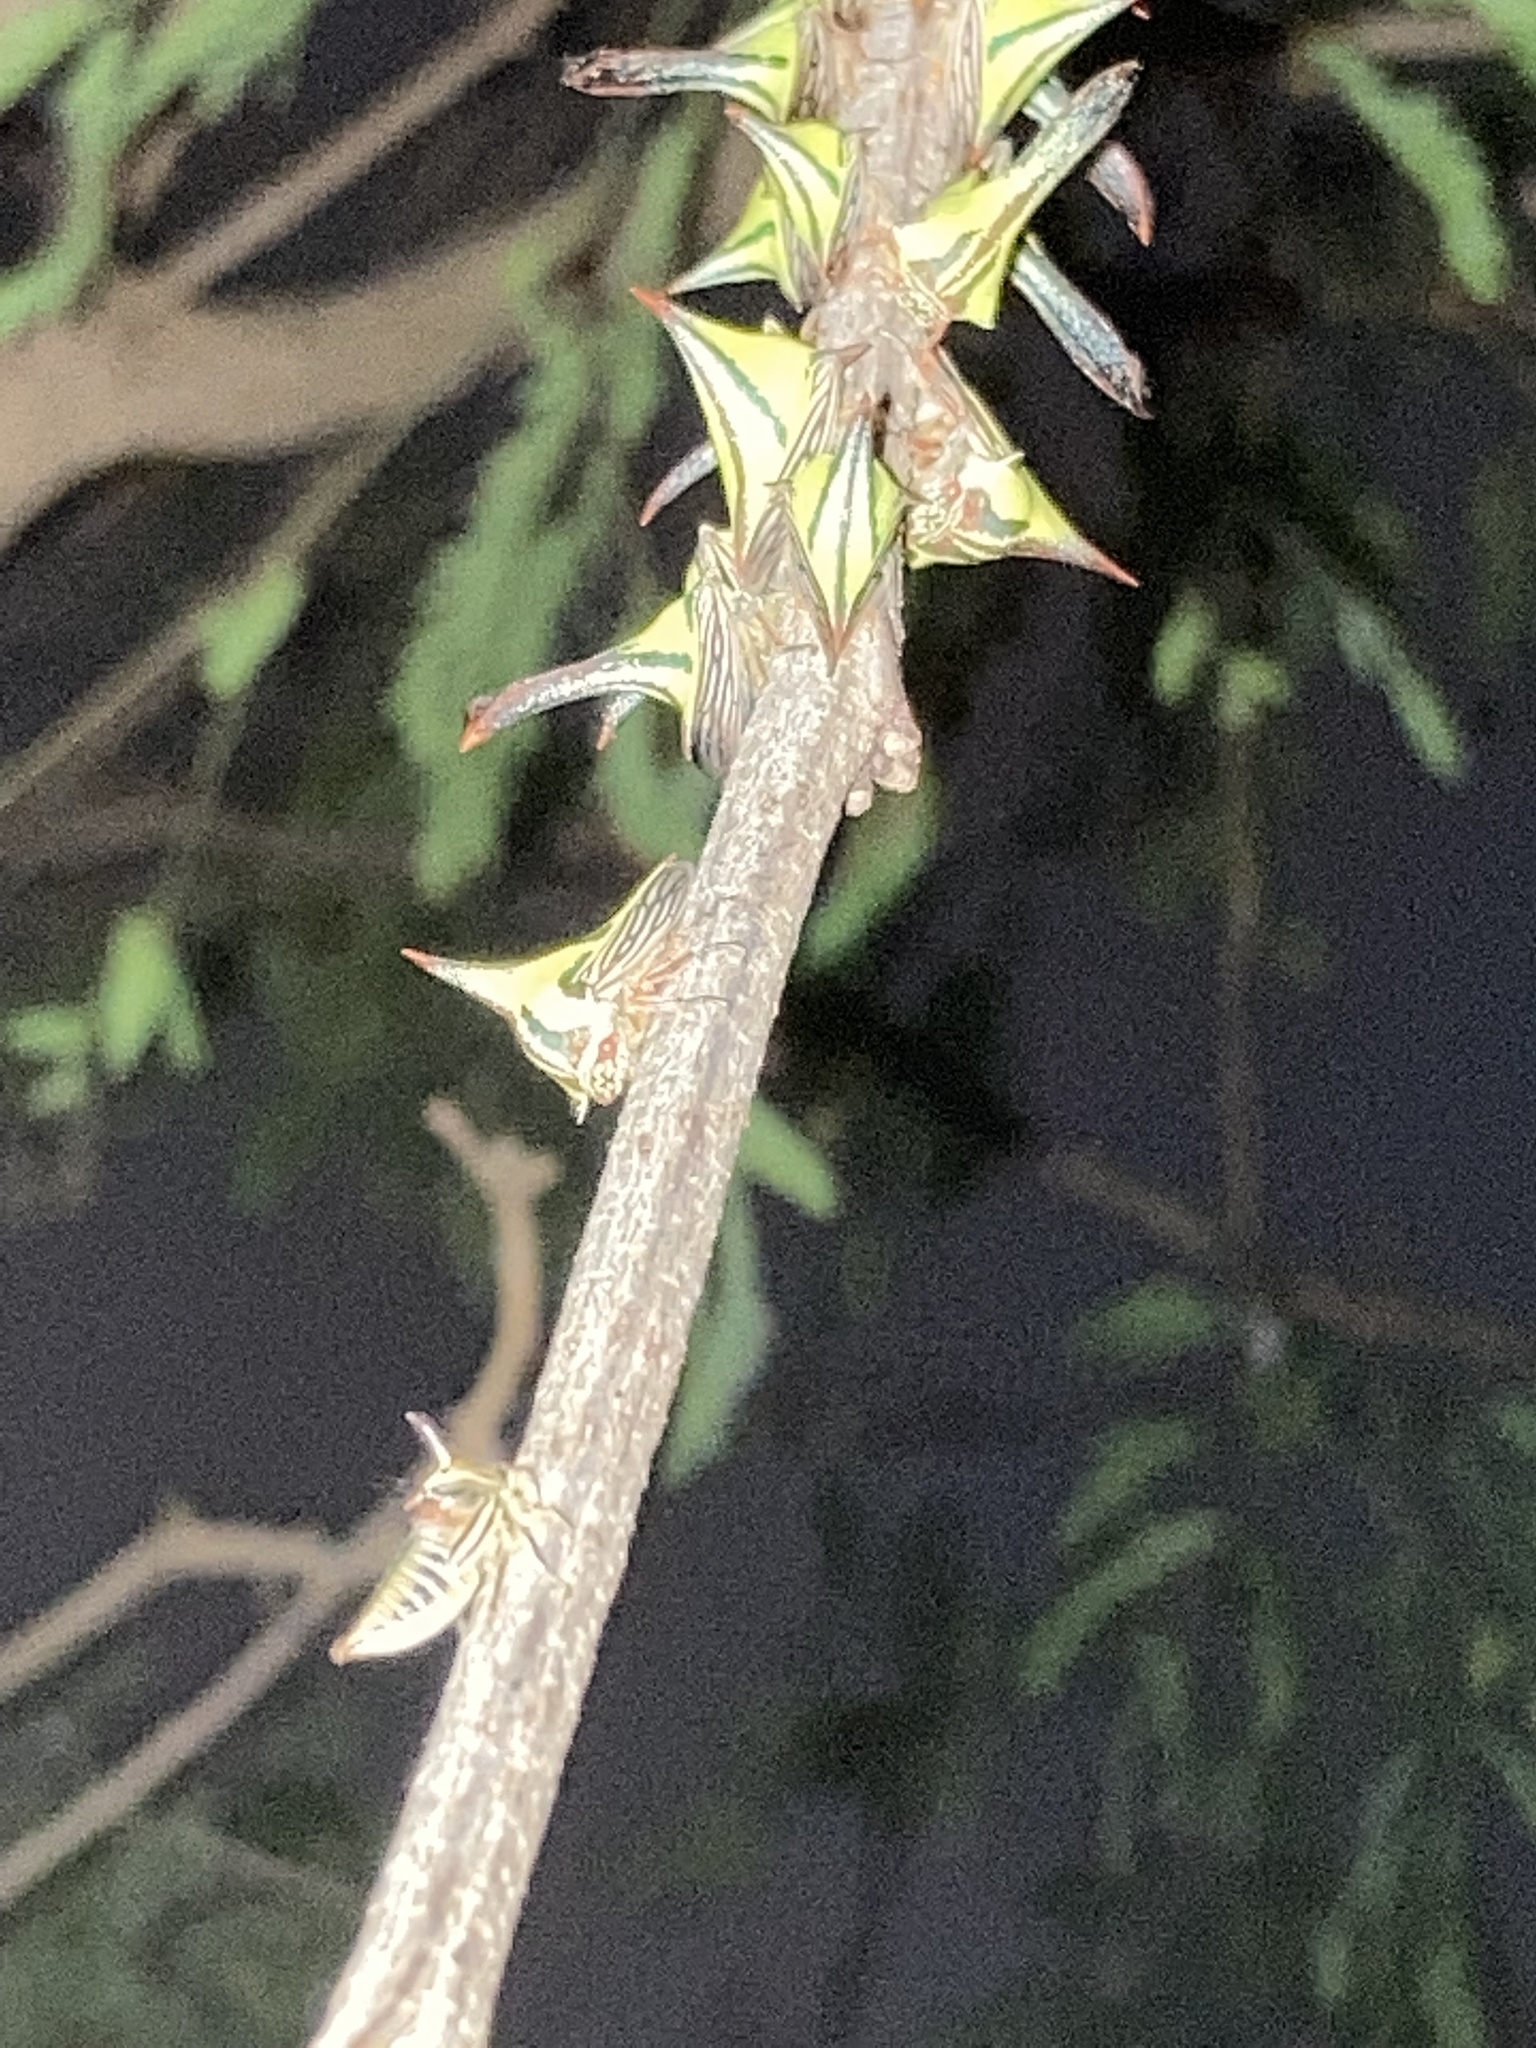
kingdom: Animalia
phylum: Arthropoda
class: Insecta
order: Hemiptera
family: Membracidae
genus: Umbonia
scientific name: Umbonia crassicornis
